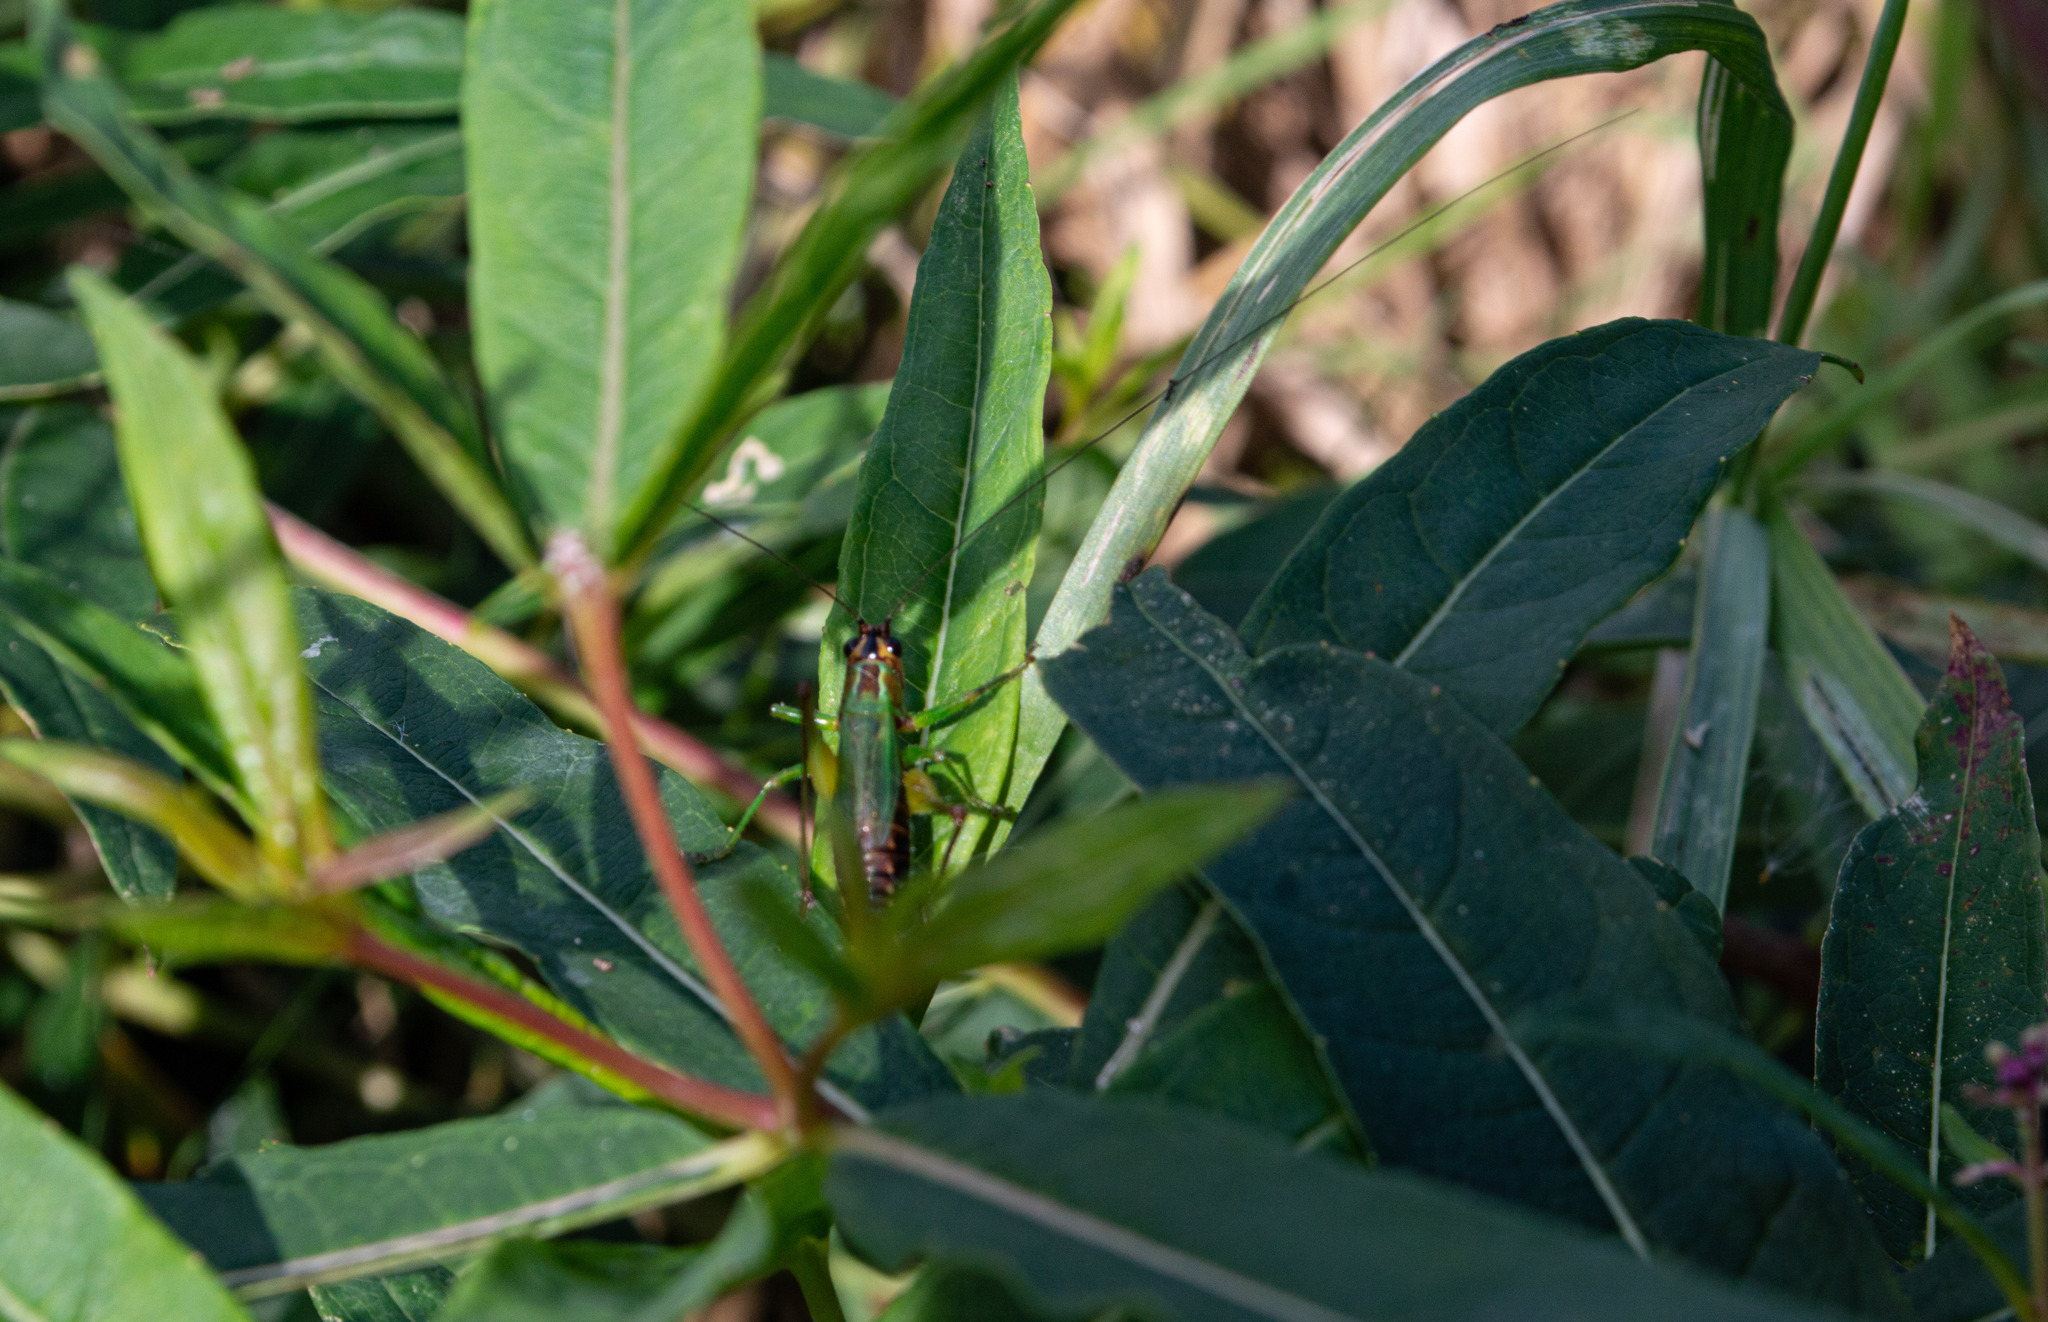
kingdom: Animalia
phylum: Arthropoda
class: Insecta
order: Orthoptera
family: Tettigoniidae
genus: Conocephalus
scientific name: Conocephalus nigropleurum
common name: Black-sided meadow katydid
